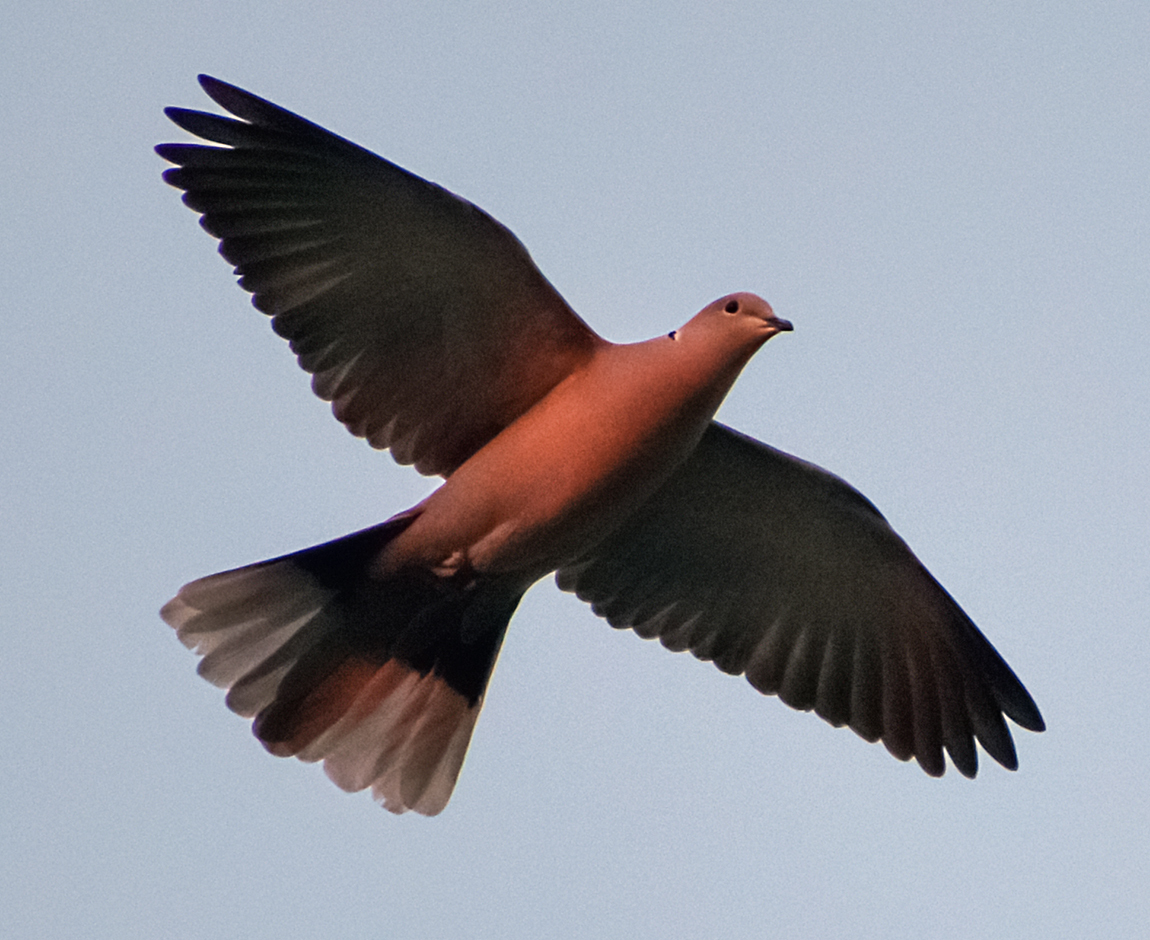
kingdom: Animalia
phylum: Chordata
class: Aves
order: Columbiformes
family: Columbidae
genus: Streptopelia
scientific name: Streptopelia decaocto
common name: Eurasian collared dove
